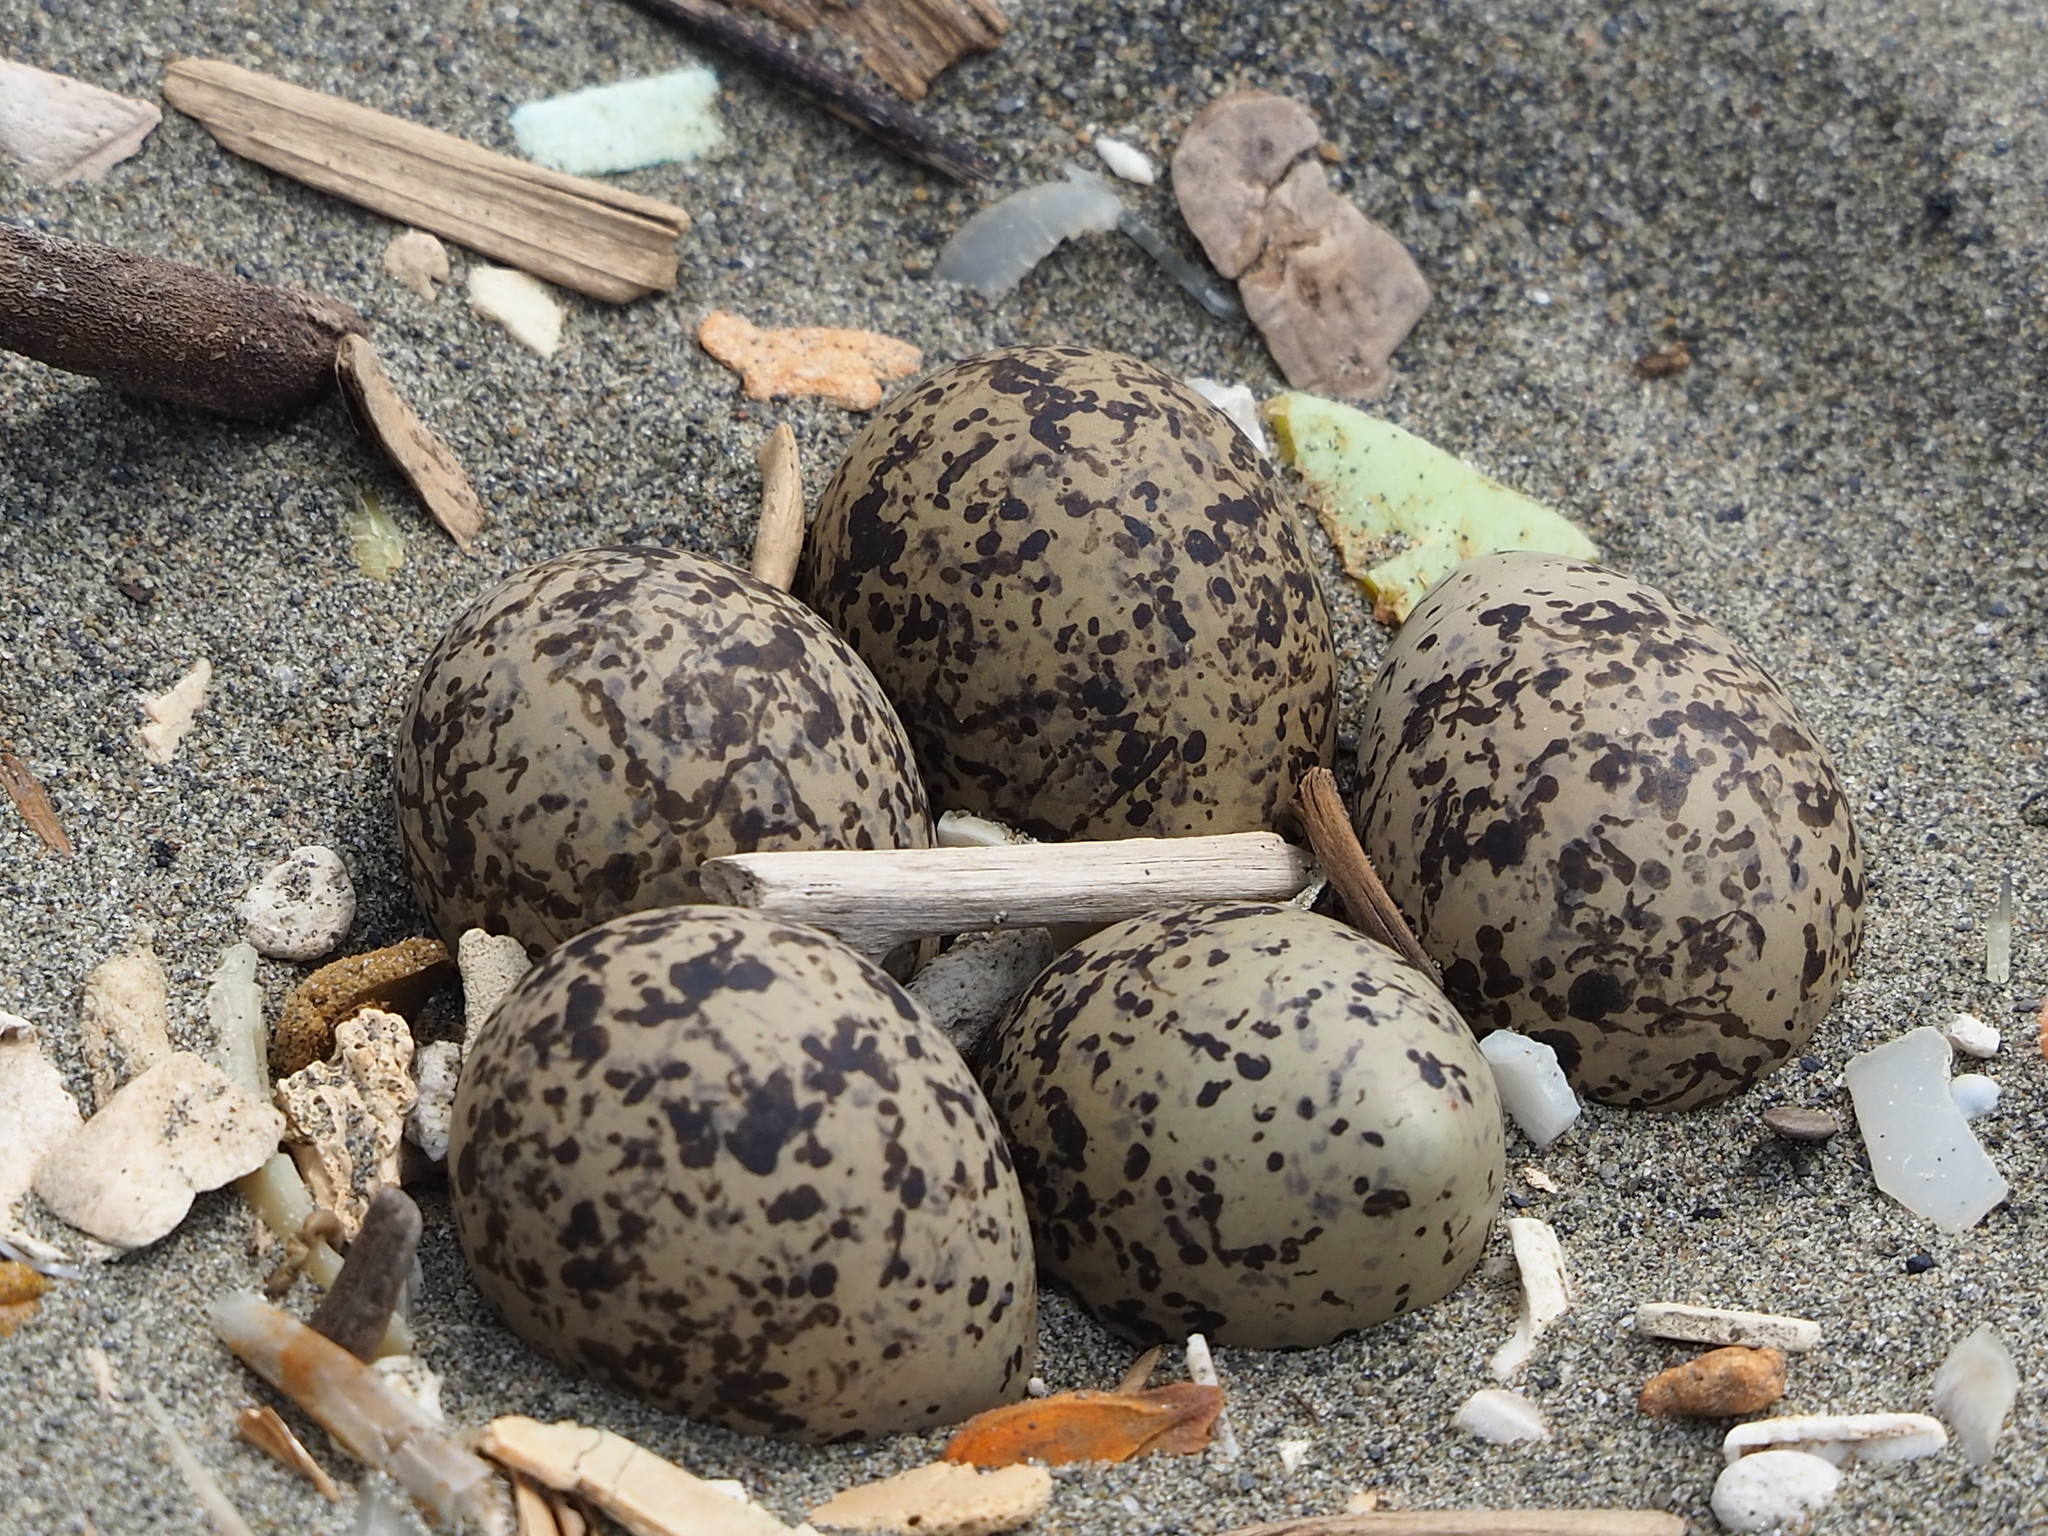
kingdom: Animalia
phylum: Chordata
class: Aves
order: Charadriiformes
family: Charadriidae
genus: Charadrius
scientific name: Charadrius alexandrinus
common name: Kentish plover
